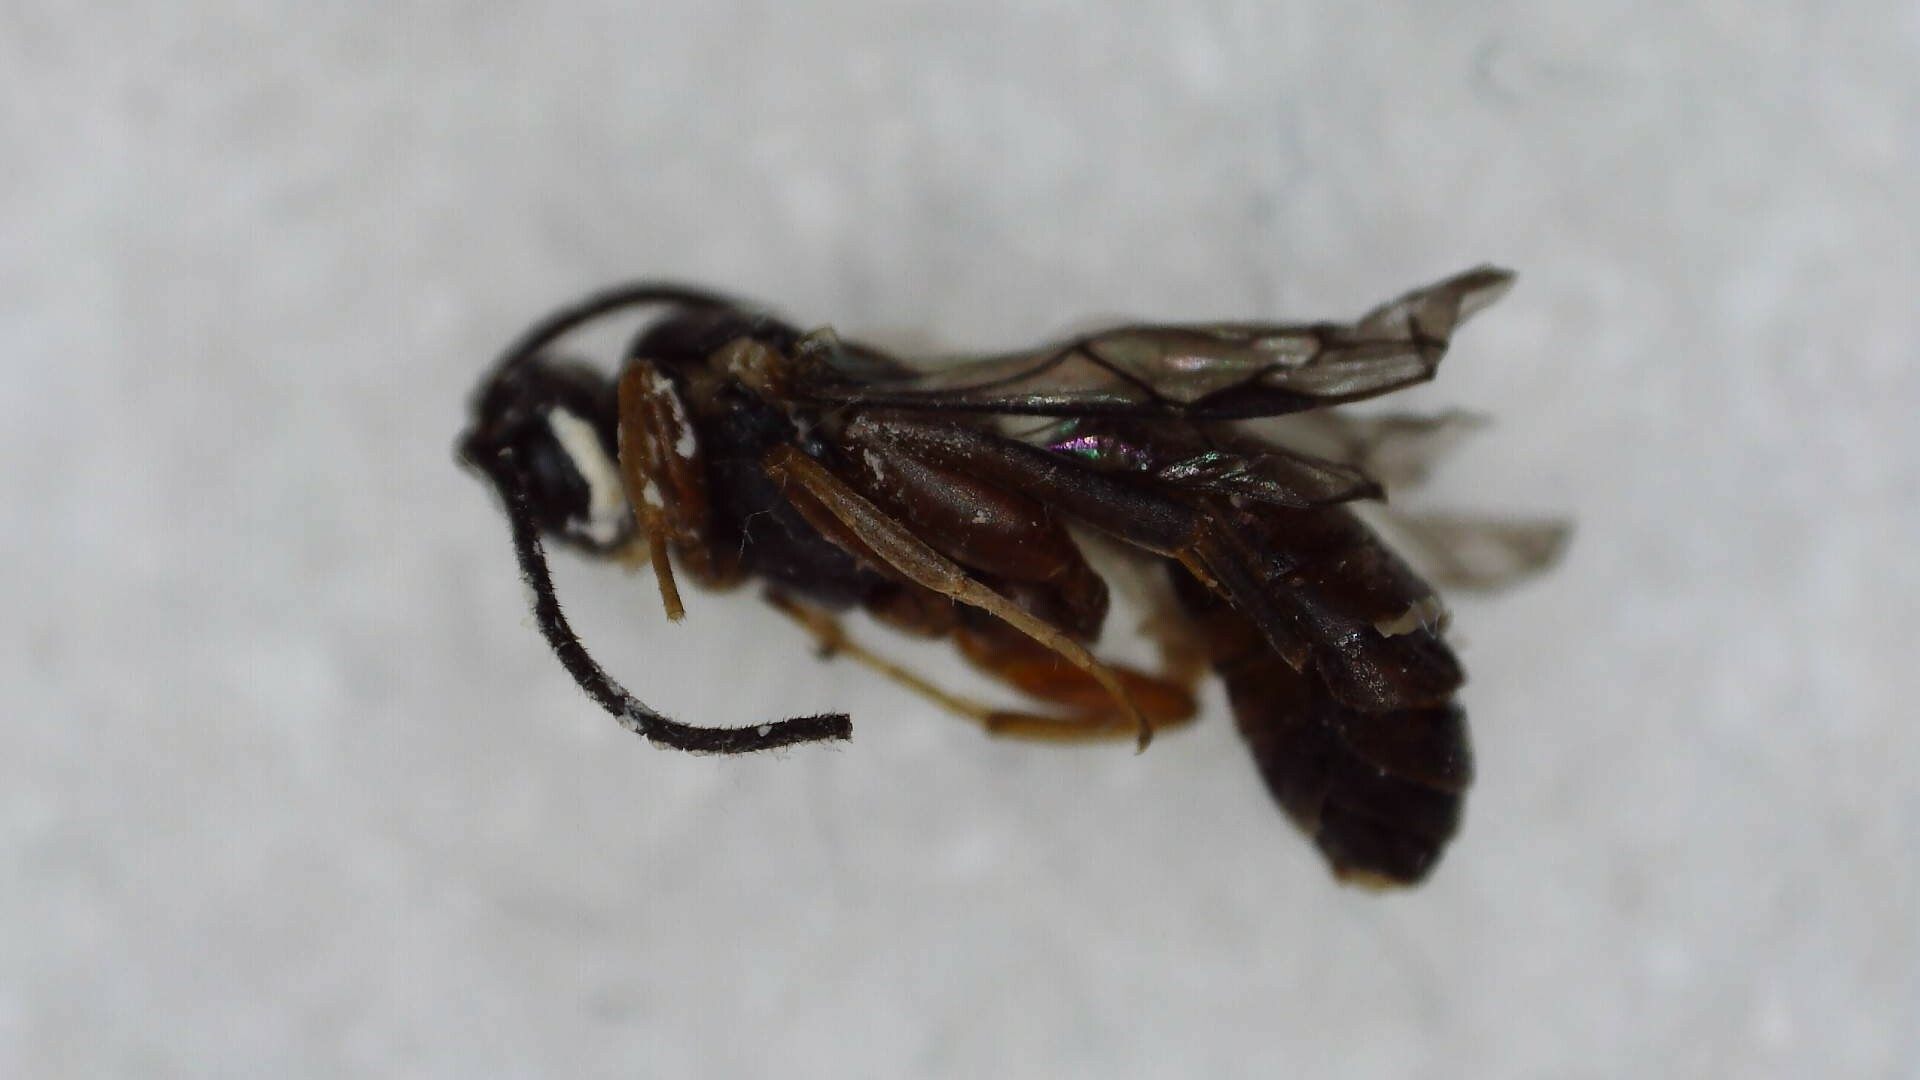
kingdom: Animalia
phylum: Arthropoda
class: Insecta
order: Hymenoptera
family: Ichneumonidae
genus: Sphecophaga
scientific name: Sphecophaga vesparum
